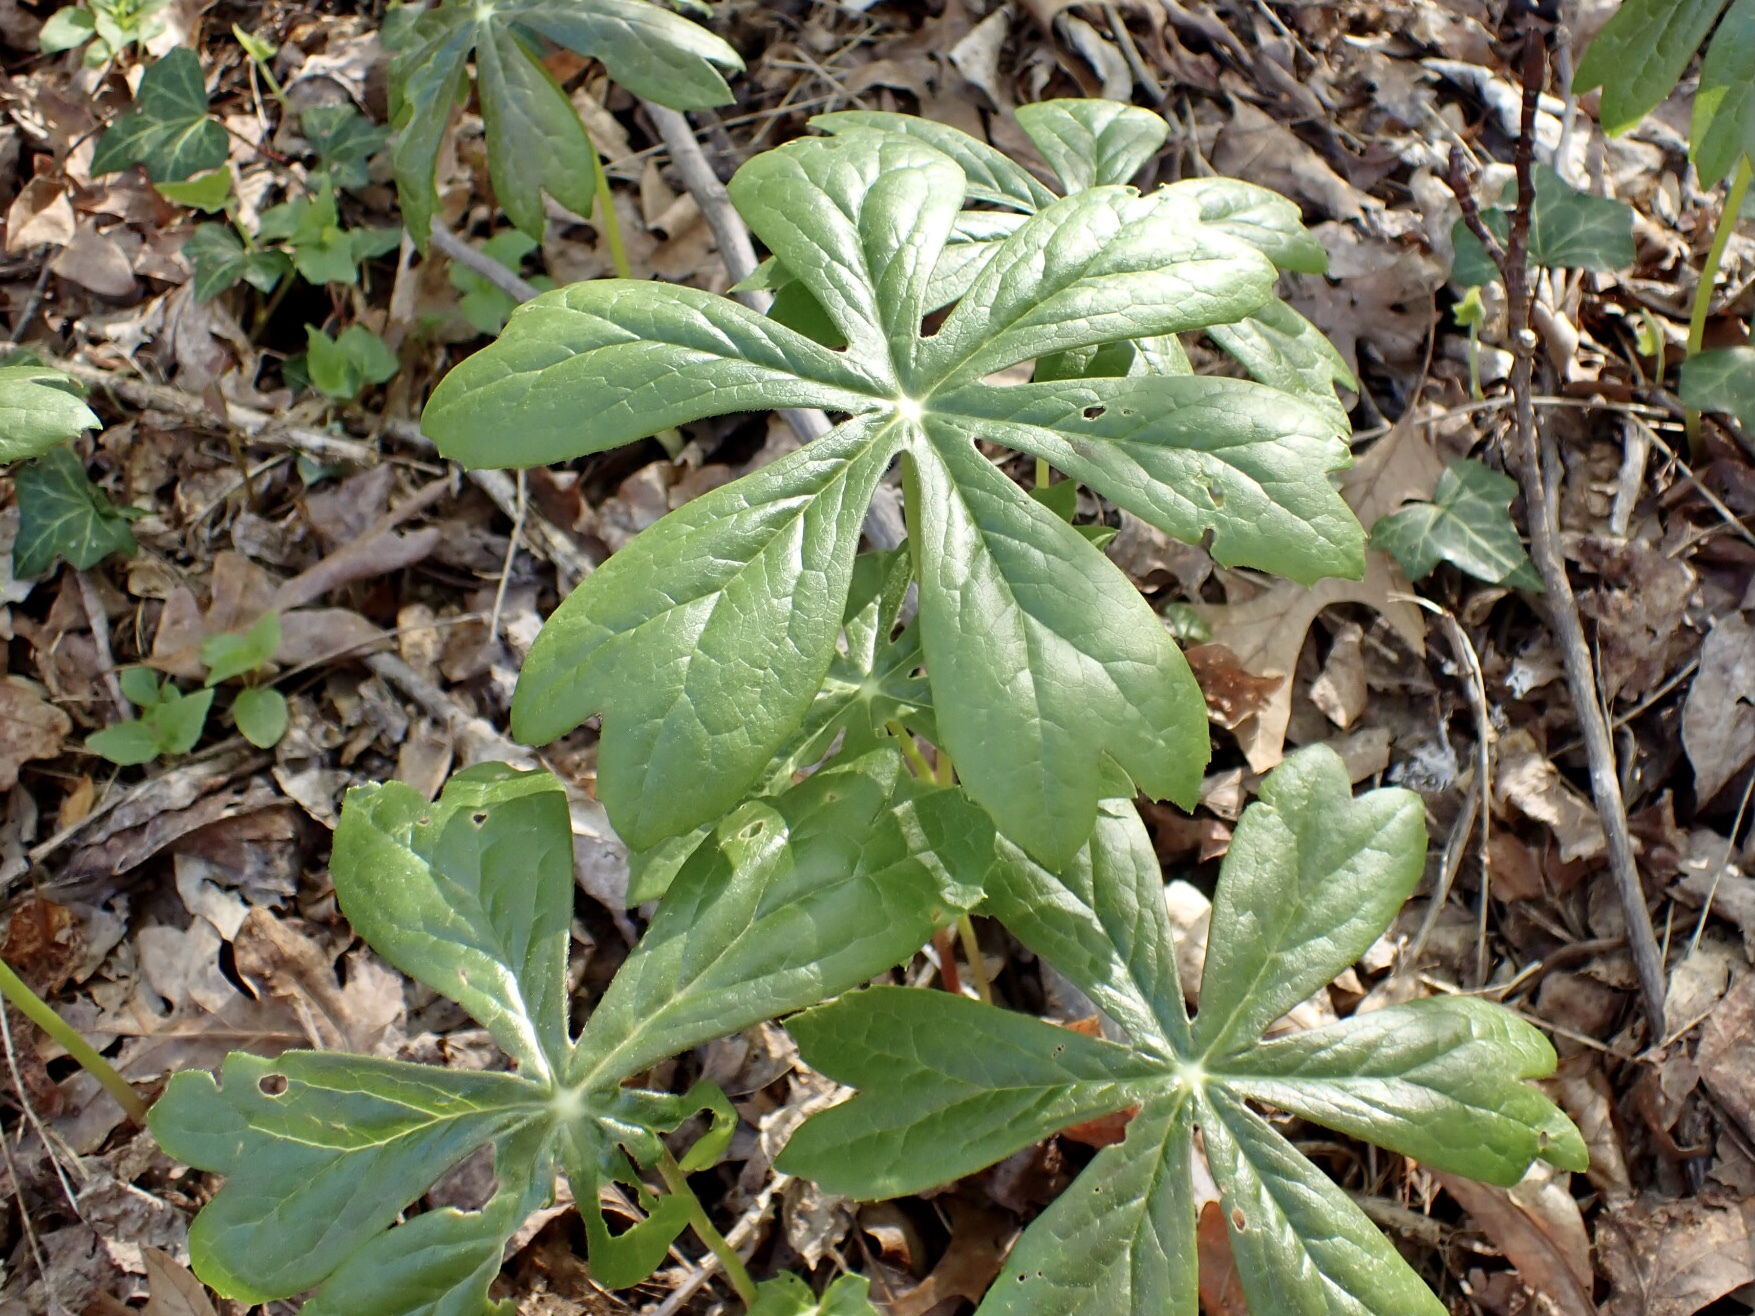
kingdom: Plantae
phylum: Tracheophyta
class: Magnoliopsida
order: Ranunculales
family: Berberidaceae
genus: Podophyllum
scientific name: Podophyllum peltatum
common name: Wild mandrake
